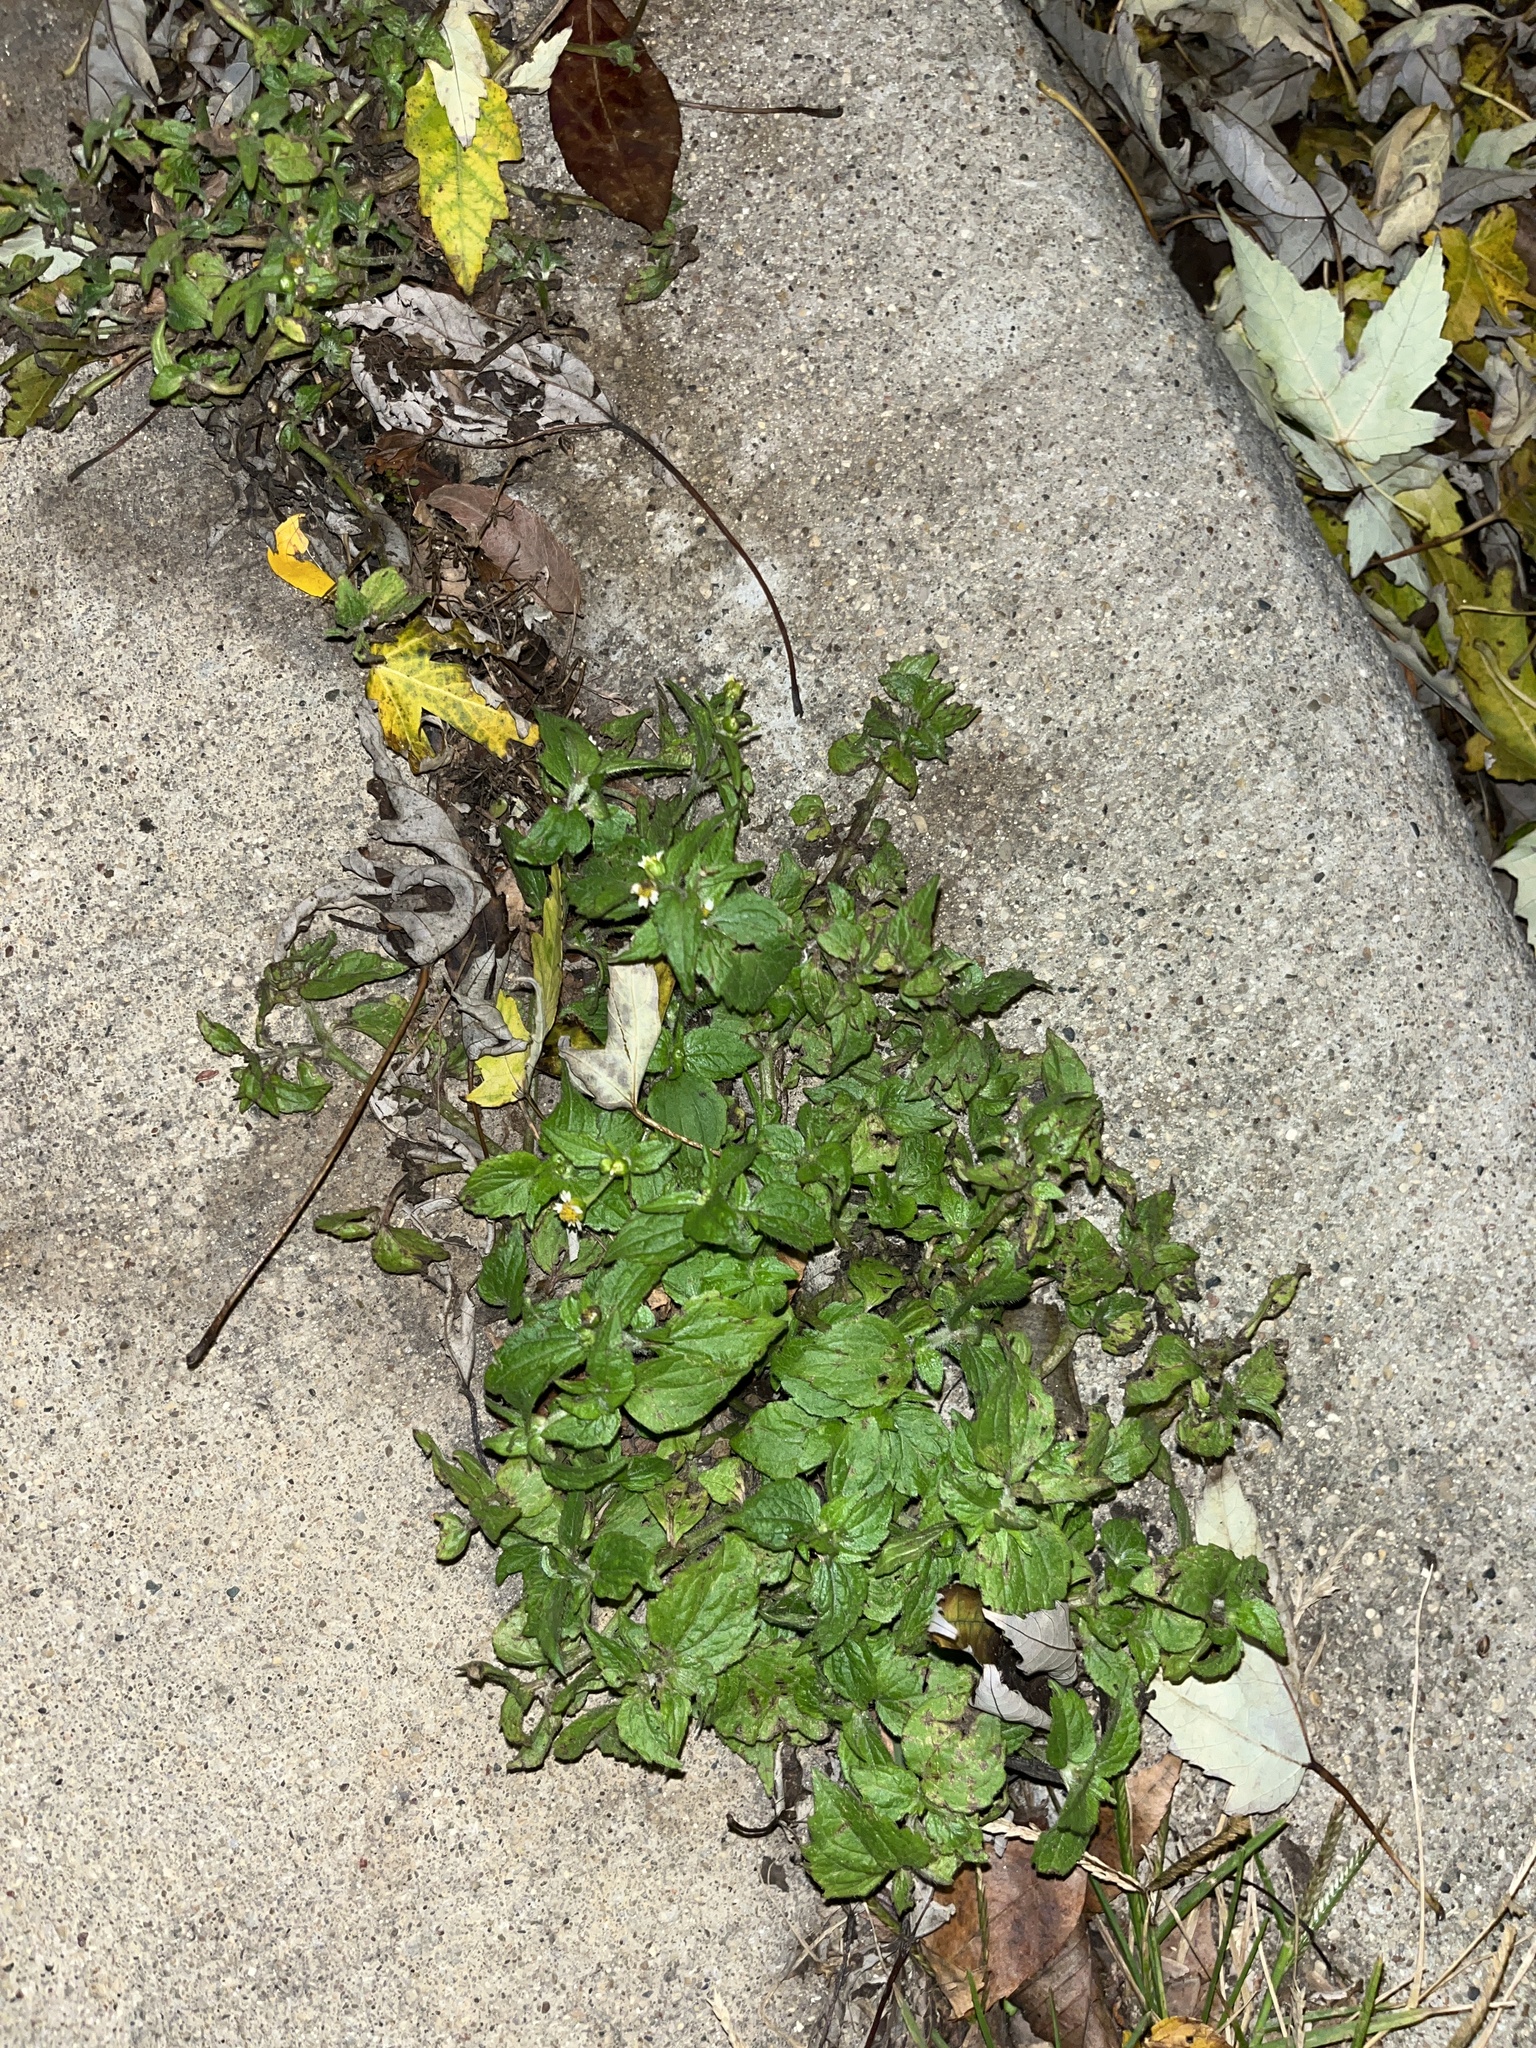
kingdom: Plantae
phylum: Tracheophyta
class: Magnoliopsida
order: Asterales
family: Asteraceae
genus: Galinsoga
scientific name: Galinsoga quadriradiata
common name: Shaggy soldier
